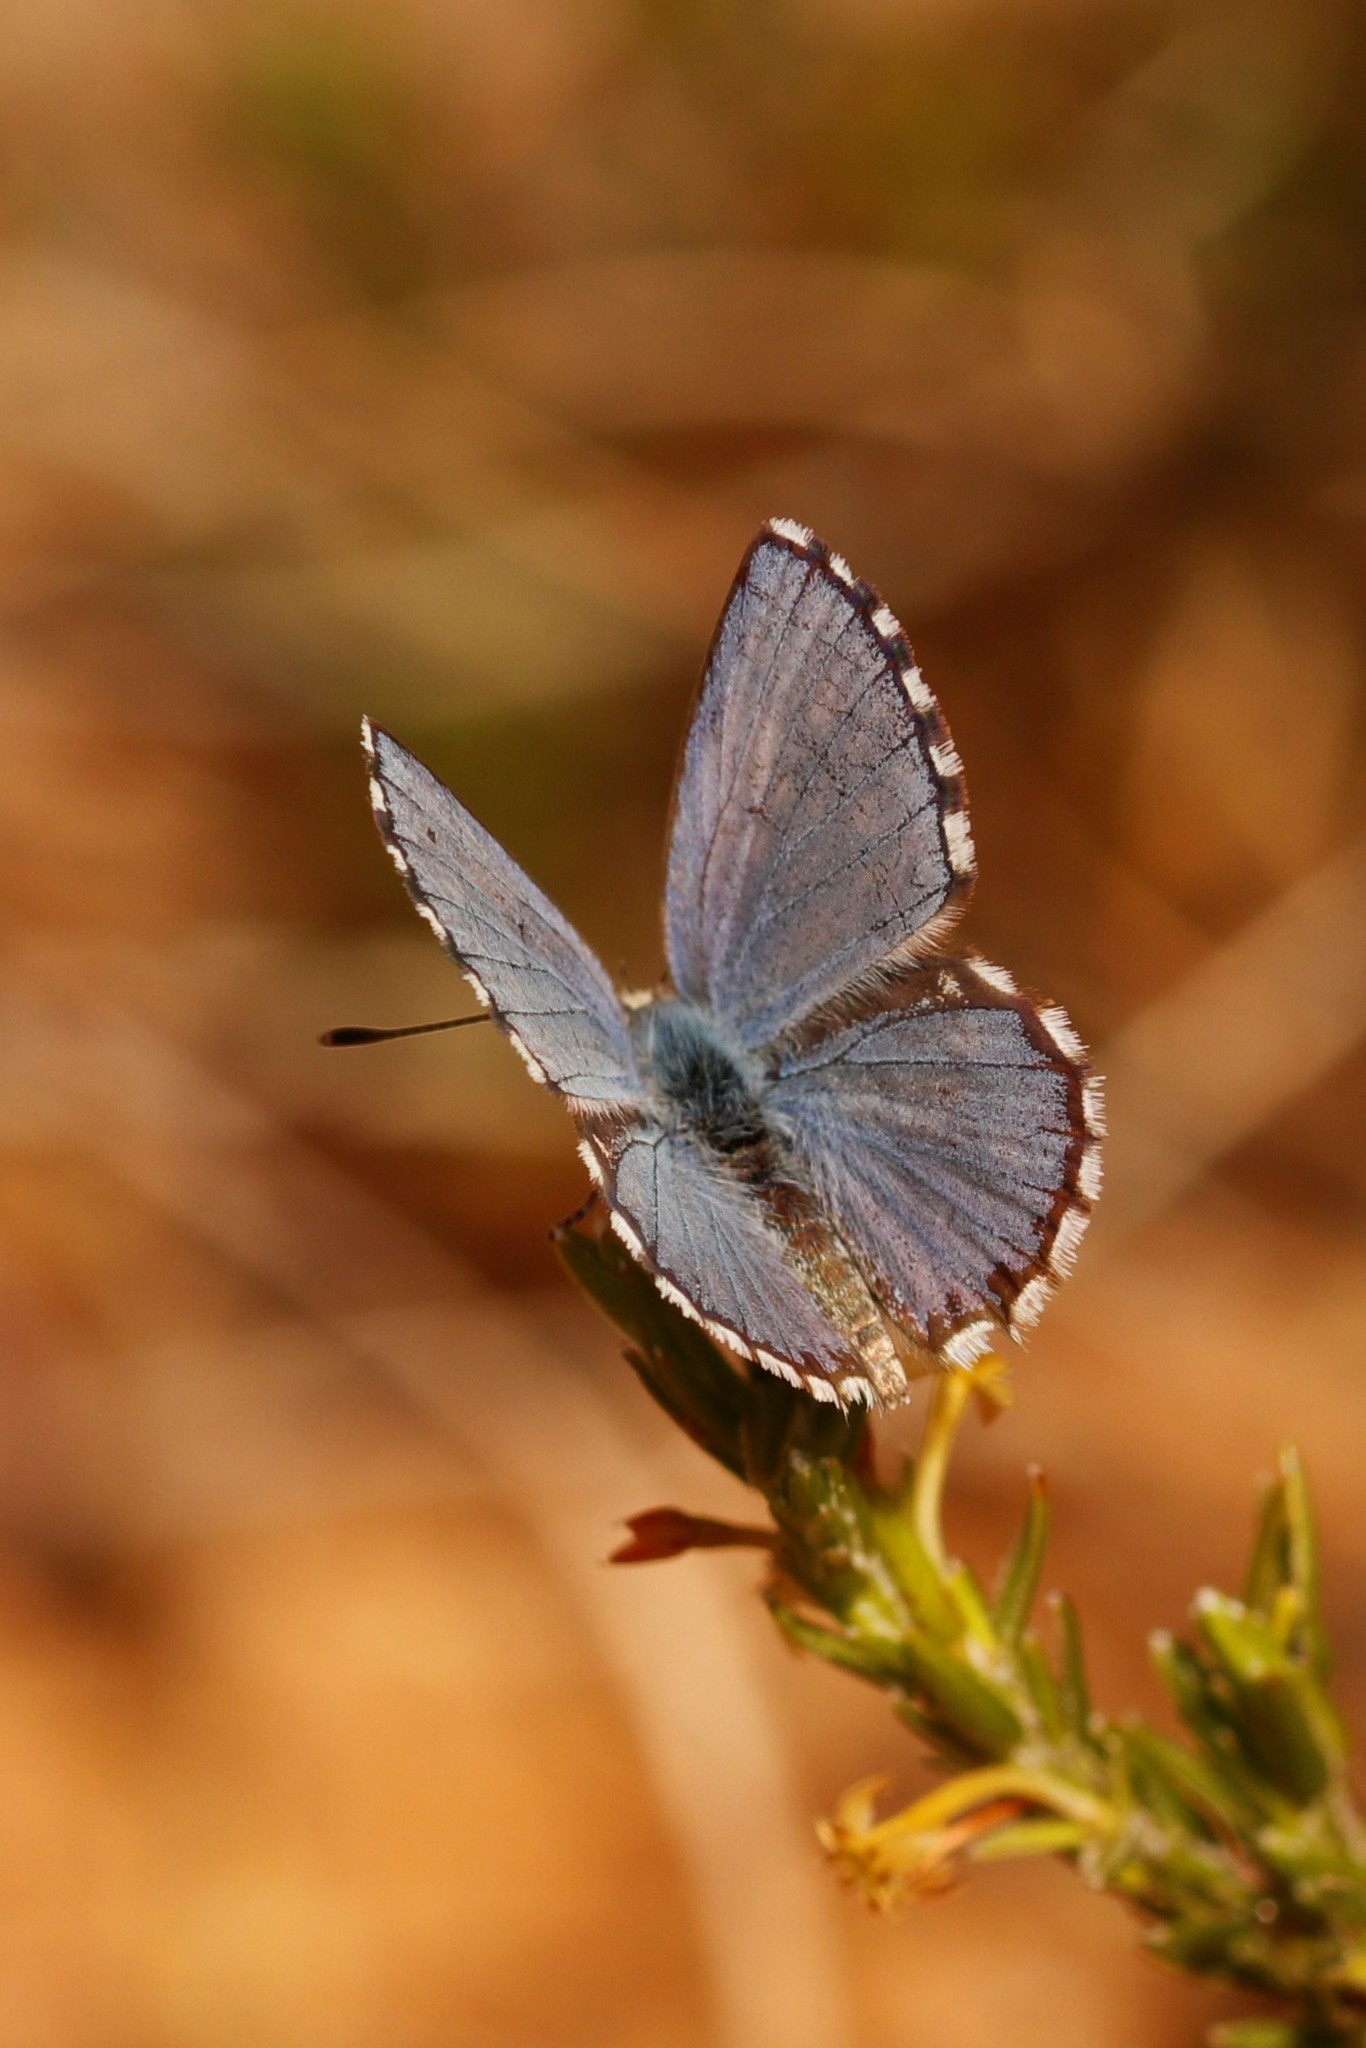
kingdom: Animalia
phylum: Arthropoda
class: Insecta
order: Lepidoptera
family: Lycaenidae
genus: Tarucus
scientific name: Tarucus thespis
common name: Vivid dotted blue
